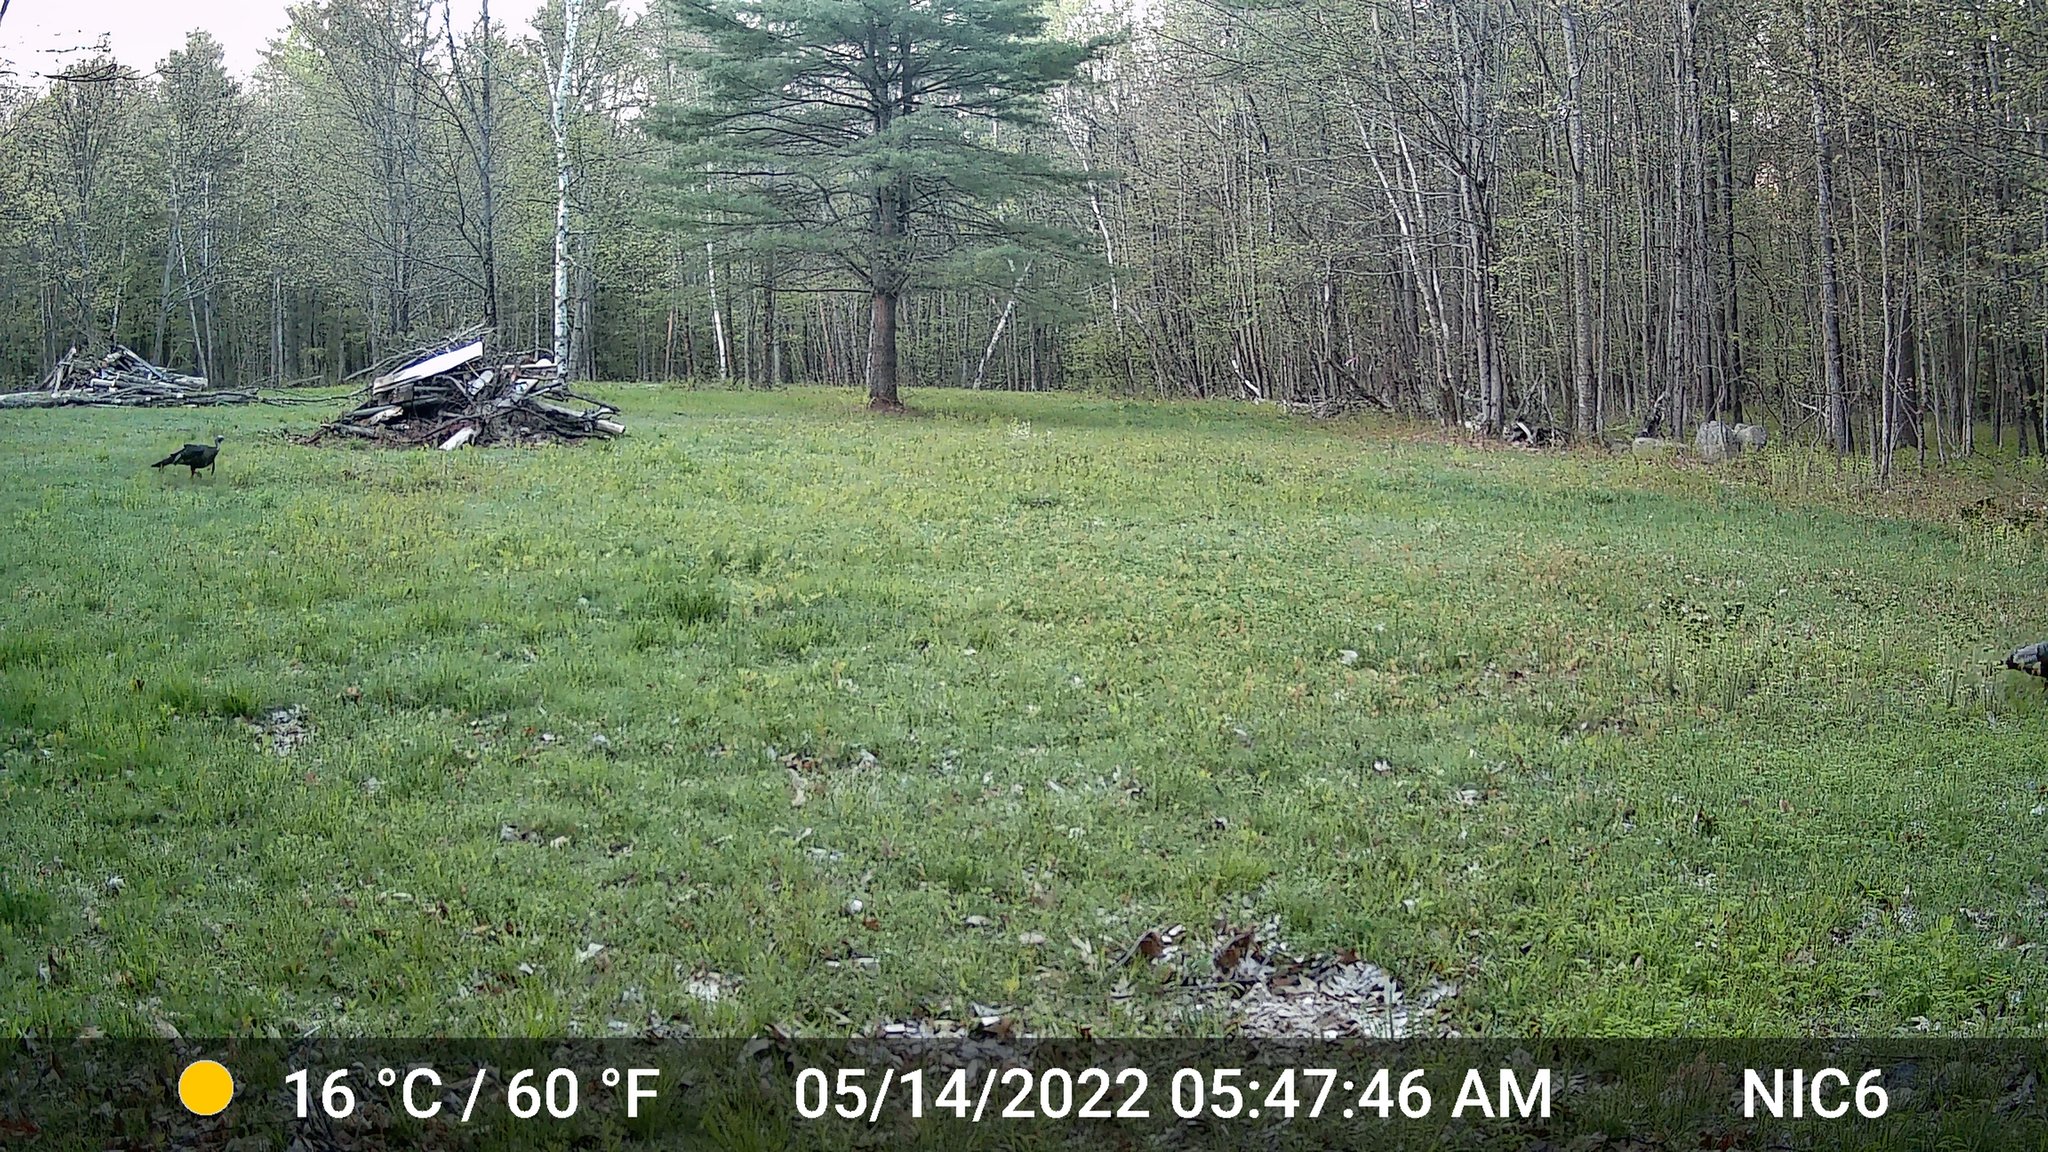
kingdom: Animalia
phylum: Chordata
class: Aves
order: Galliformes
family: Phasianidae
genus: Meleagris
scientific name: Meleagris gallopavo
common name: Wild turkey
